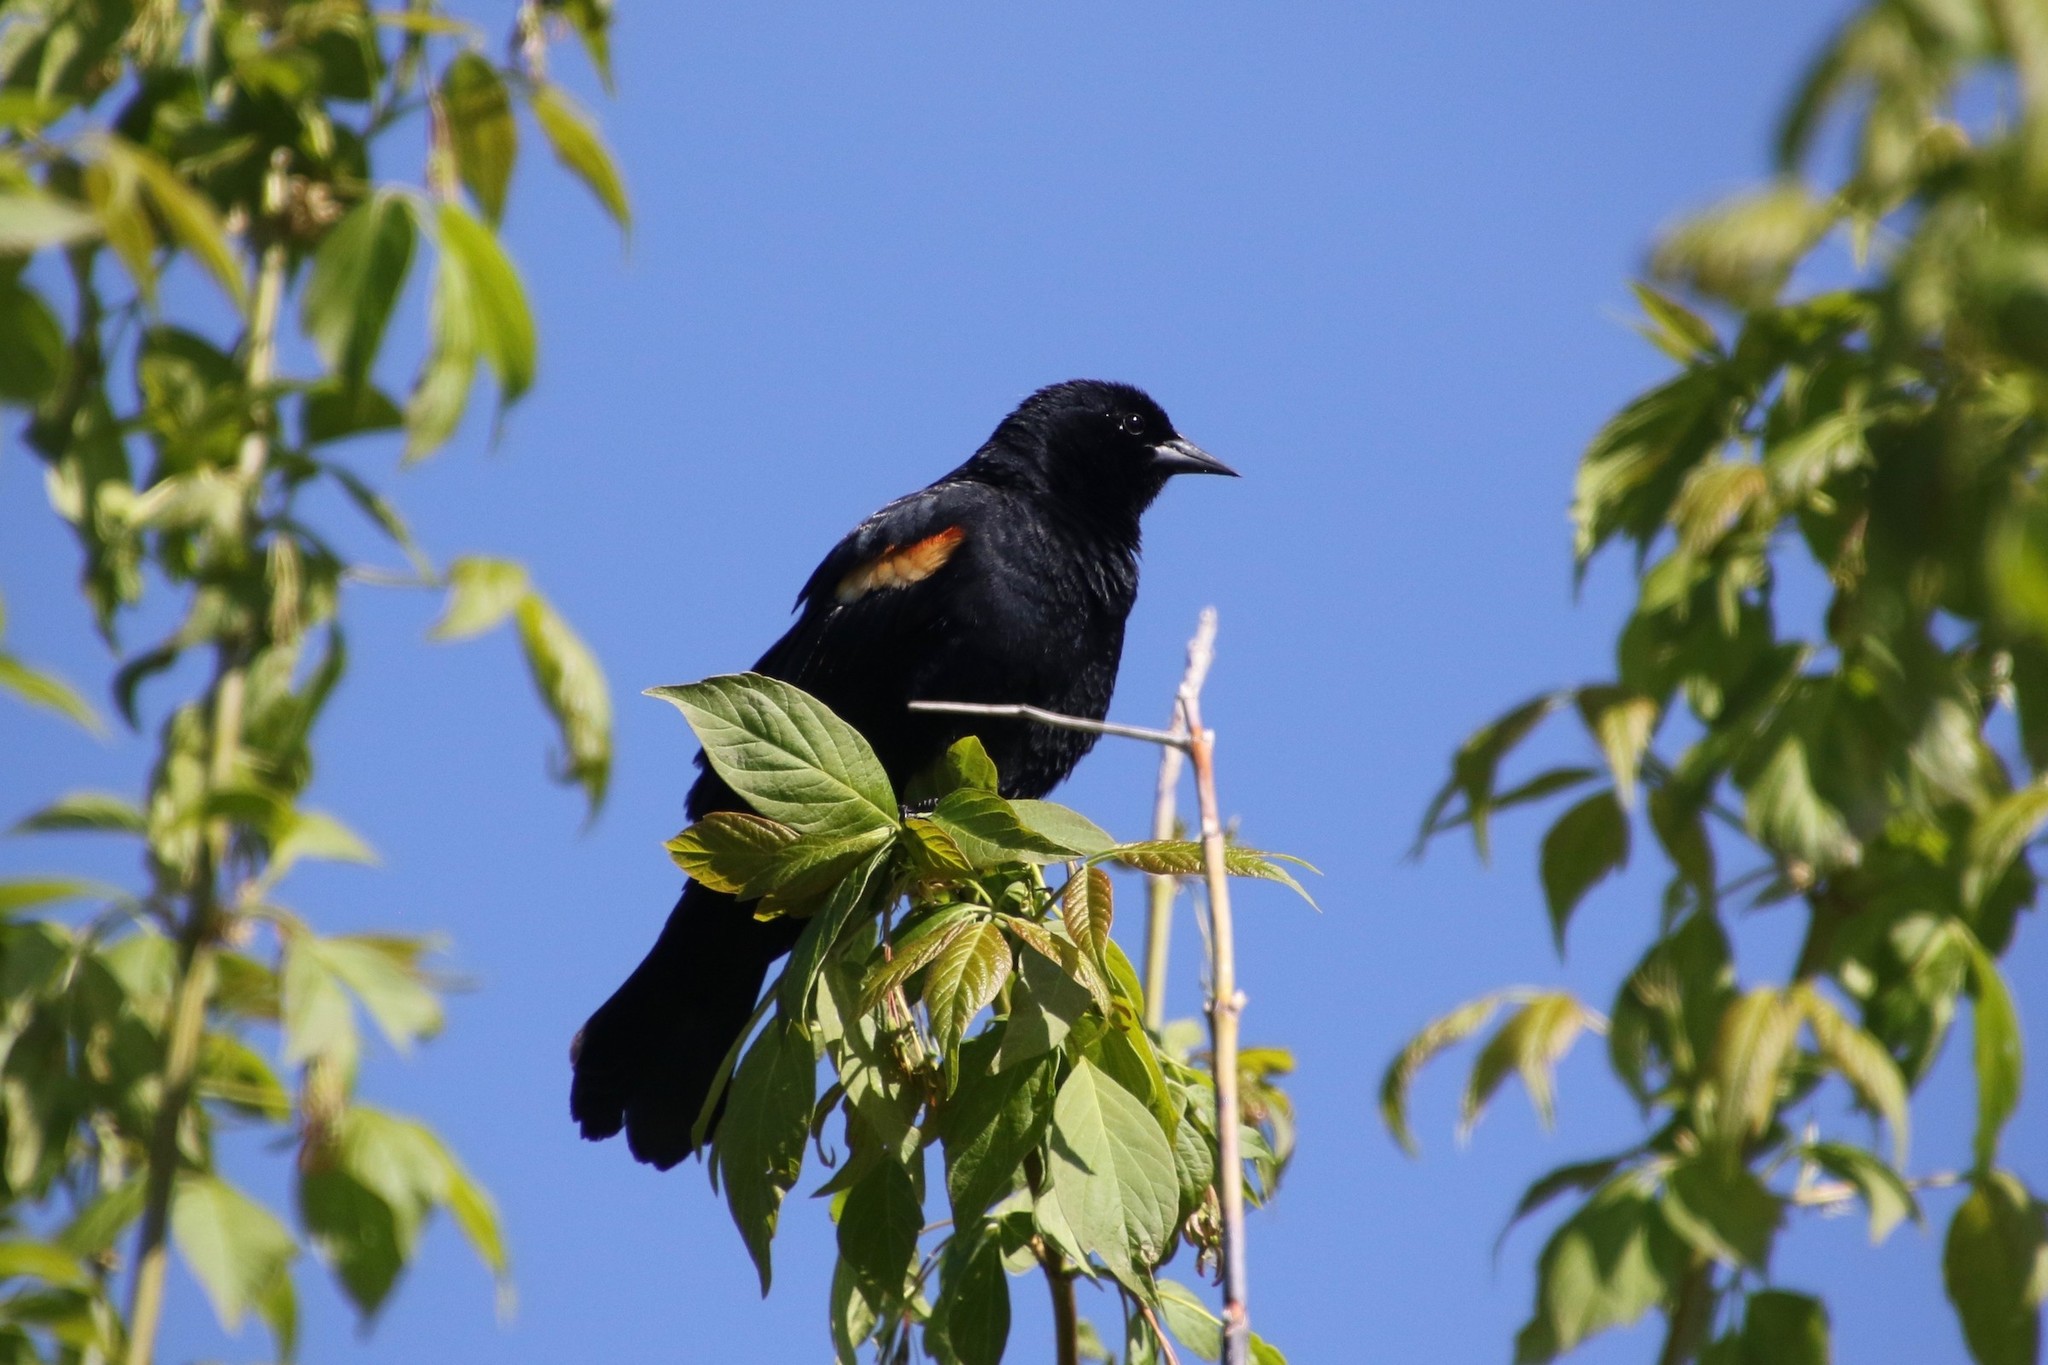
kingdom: Animalia
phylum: Chordata
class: Aves
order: Passeriformes
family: Icteridae
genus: Agelaius
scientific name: Agelaius phoeniceus
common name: Red-winged blackbird
